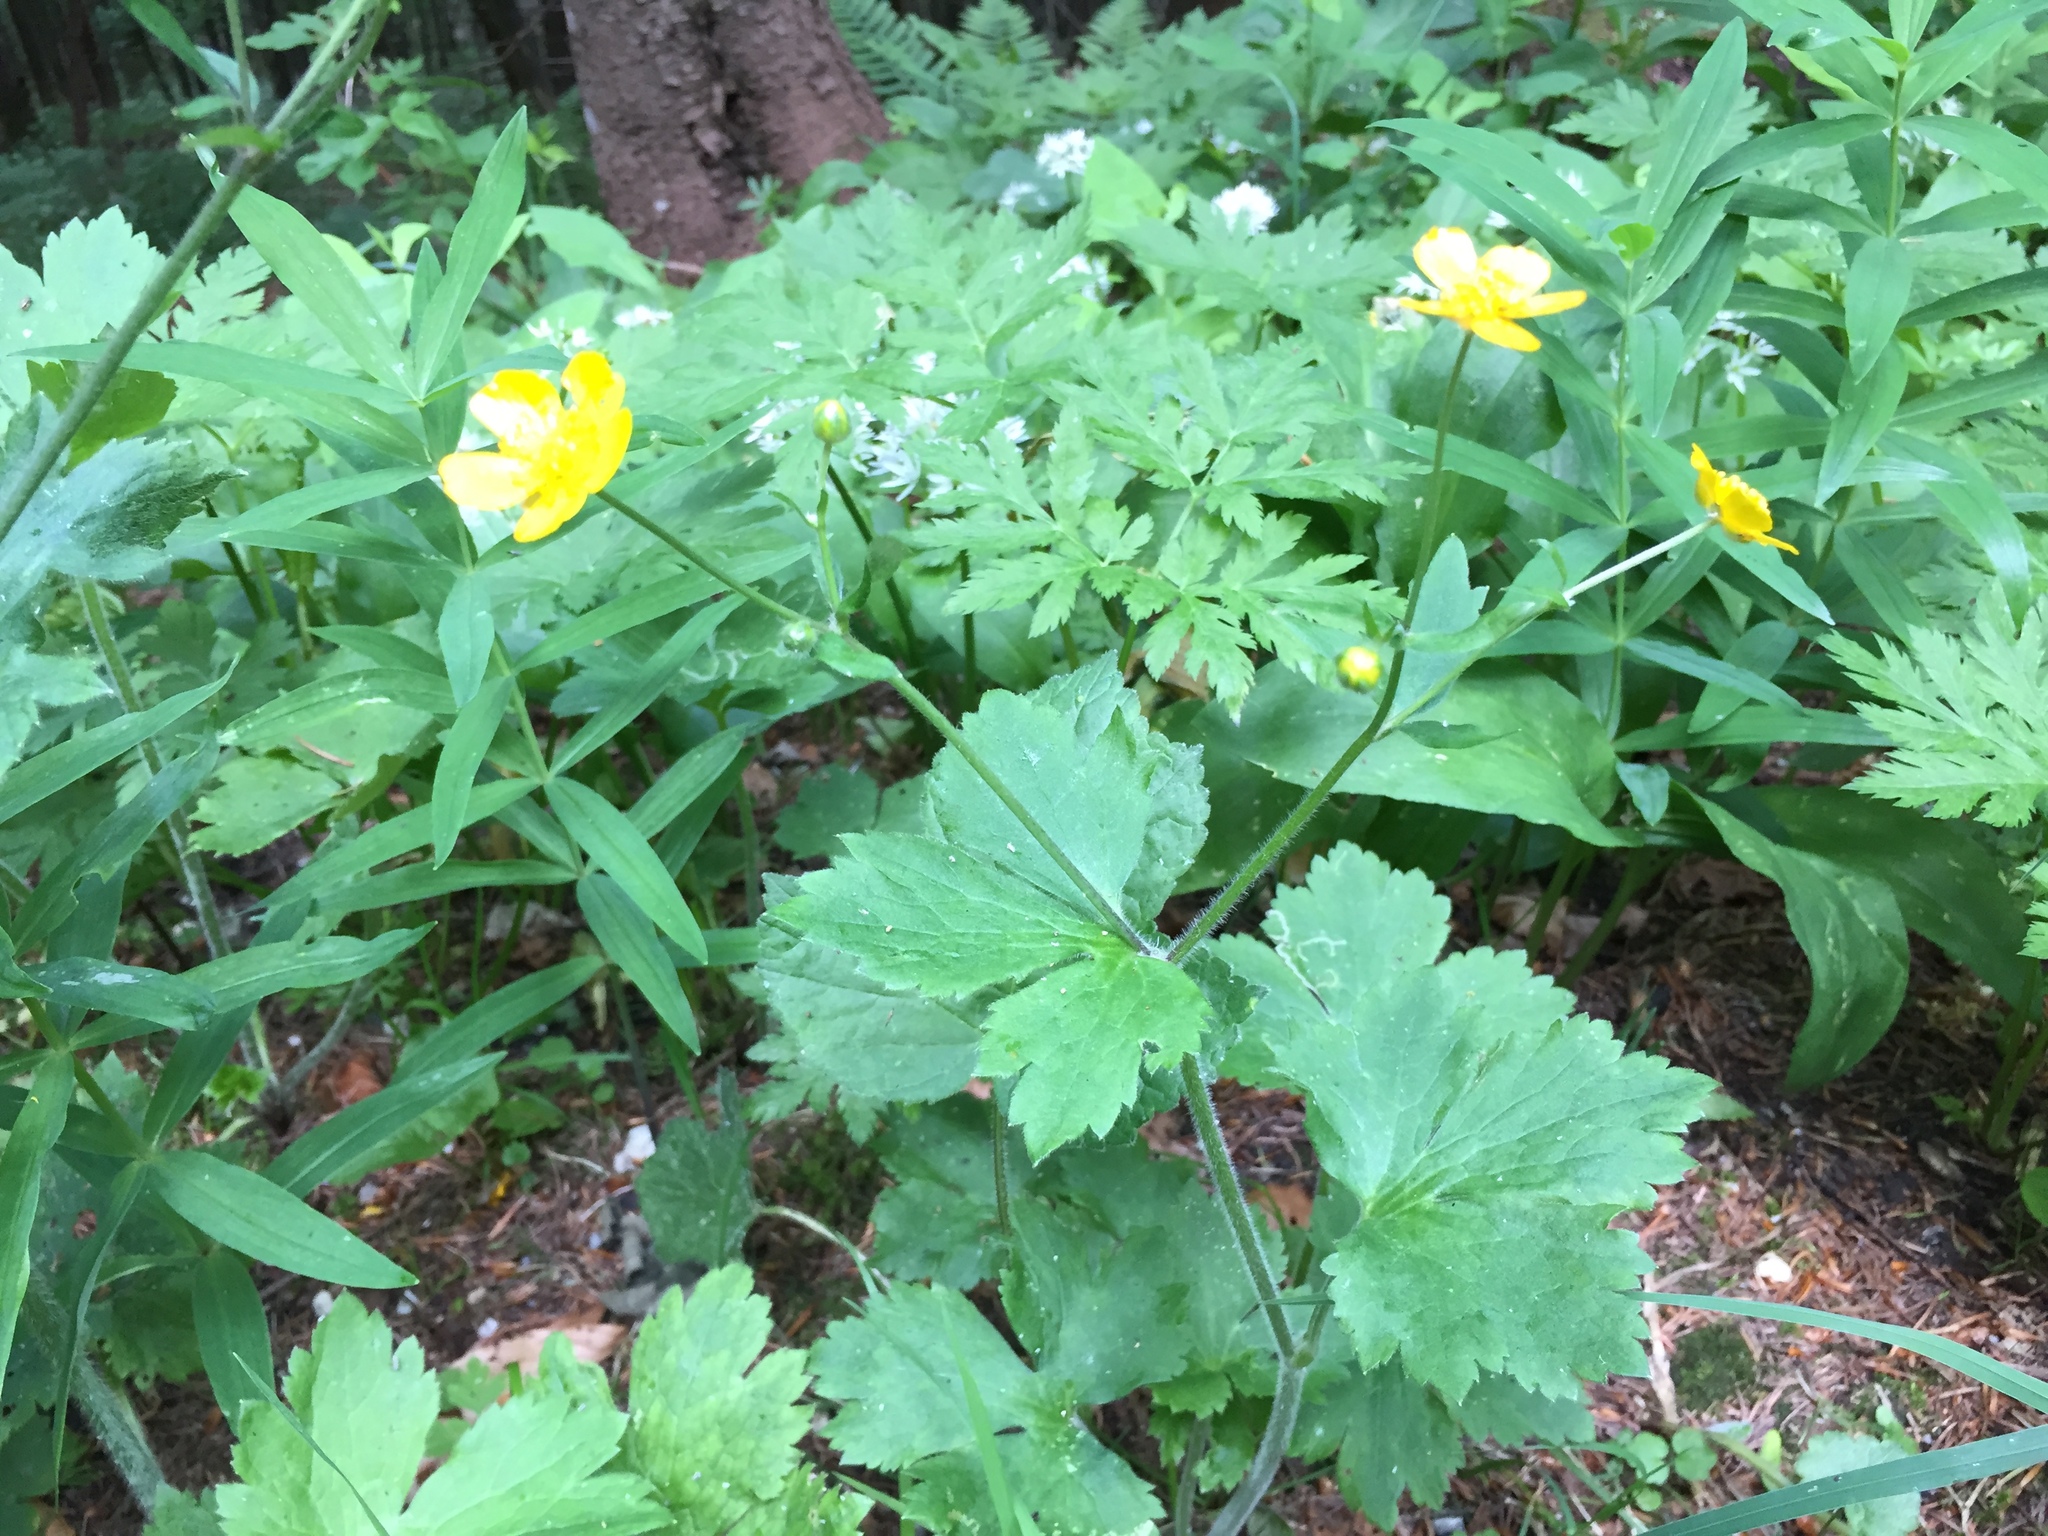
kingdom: Plantae
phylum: Tracheophyta
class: Magnoliopsida
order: Ranunculales
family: Ranunculaceae
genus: Ranunculus
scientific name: Ranunculus lanuginosus
